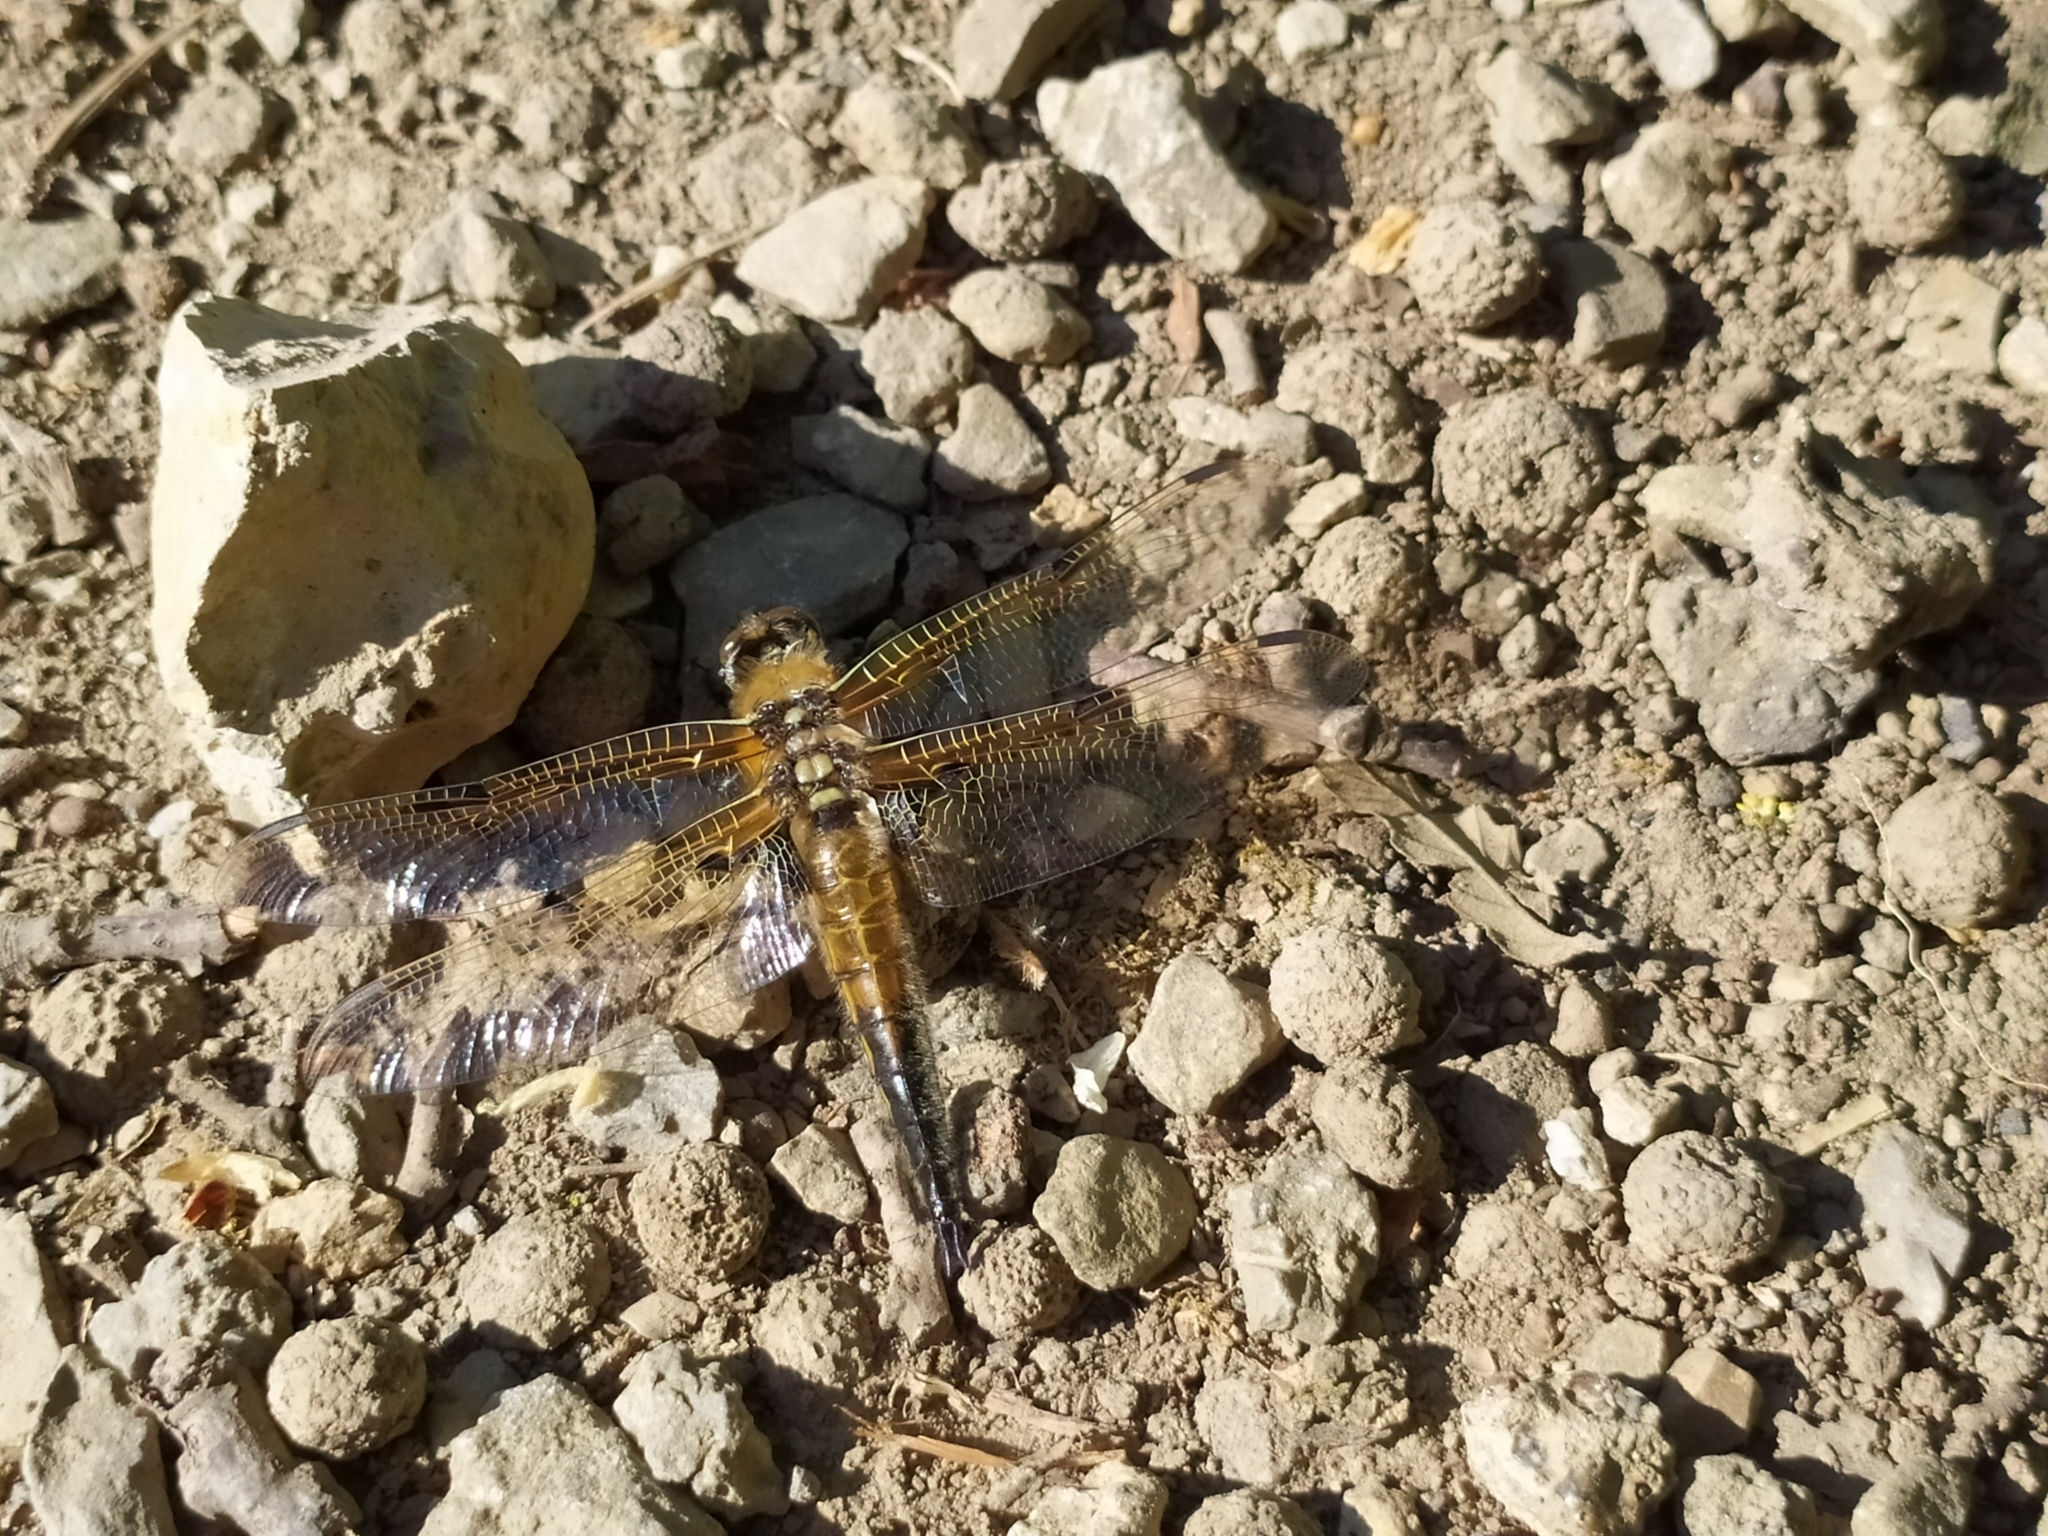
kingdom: Animalia
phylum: Arthropoda
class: Insecta
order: Odonata
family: Libellulidae
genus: Libellula
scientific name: Libellula quadrimaculata
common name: Four-spotted chaser
